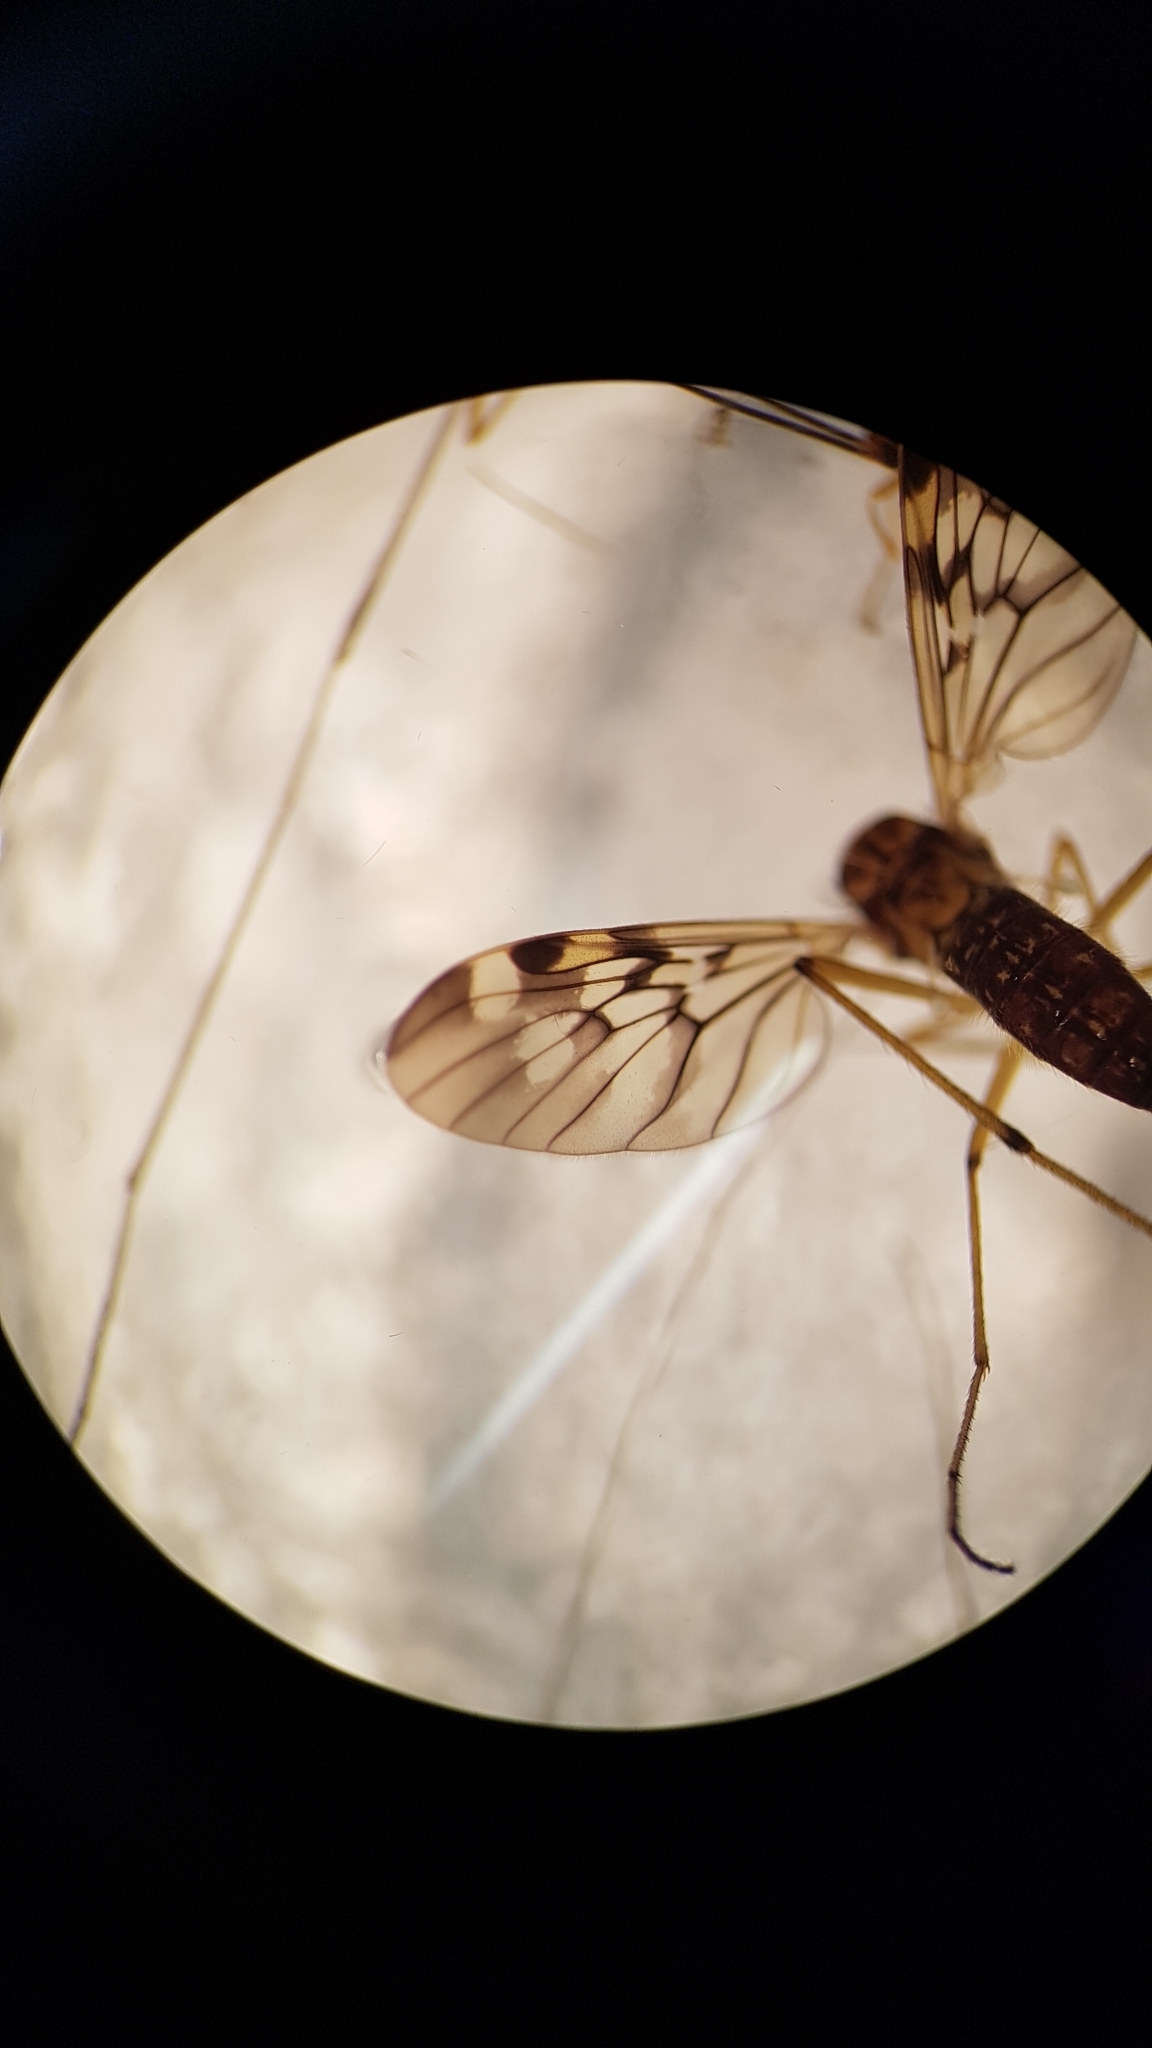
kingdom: Animalia
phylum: Arthropoda
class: Insecta
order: Diptera
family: Anisopodidae
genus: Sylvicola
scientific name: Sylvicola notatus
